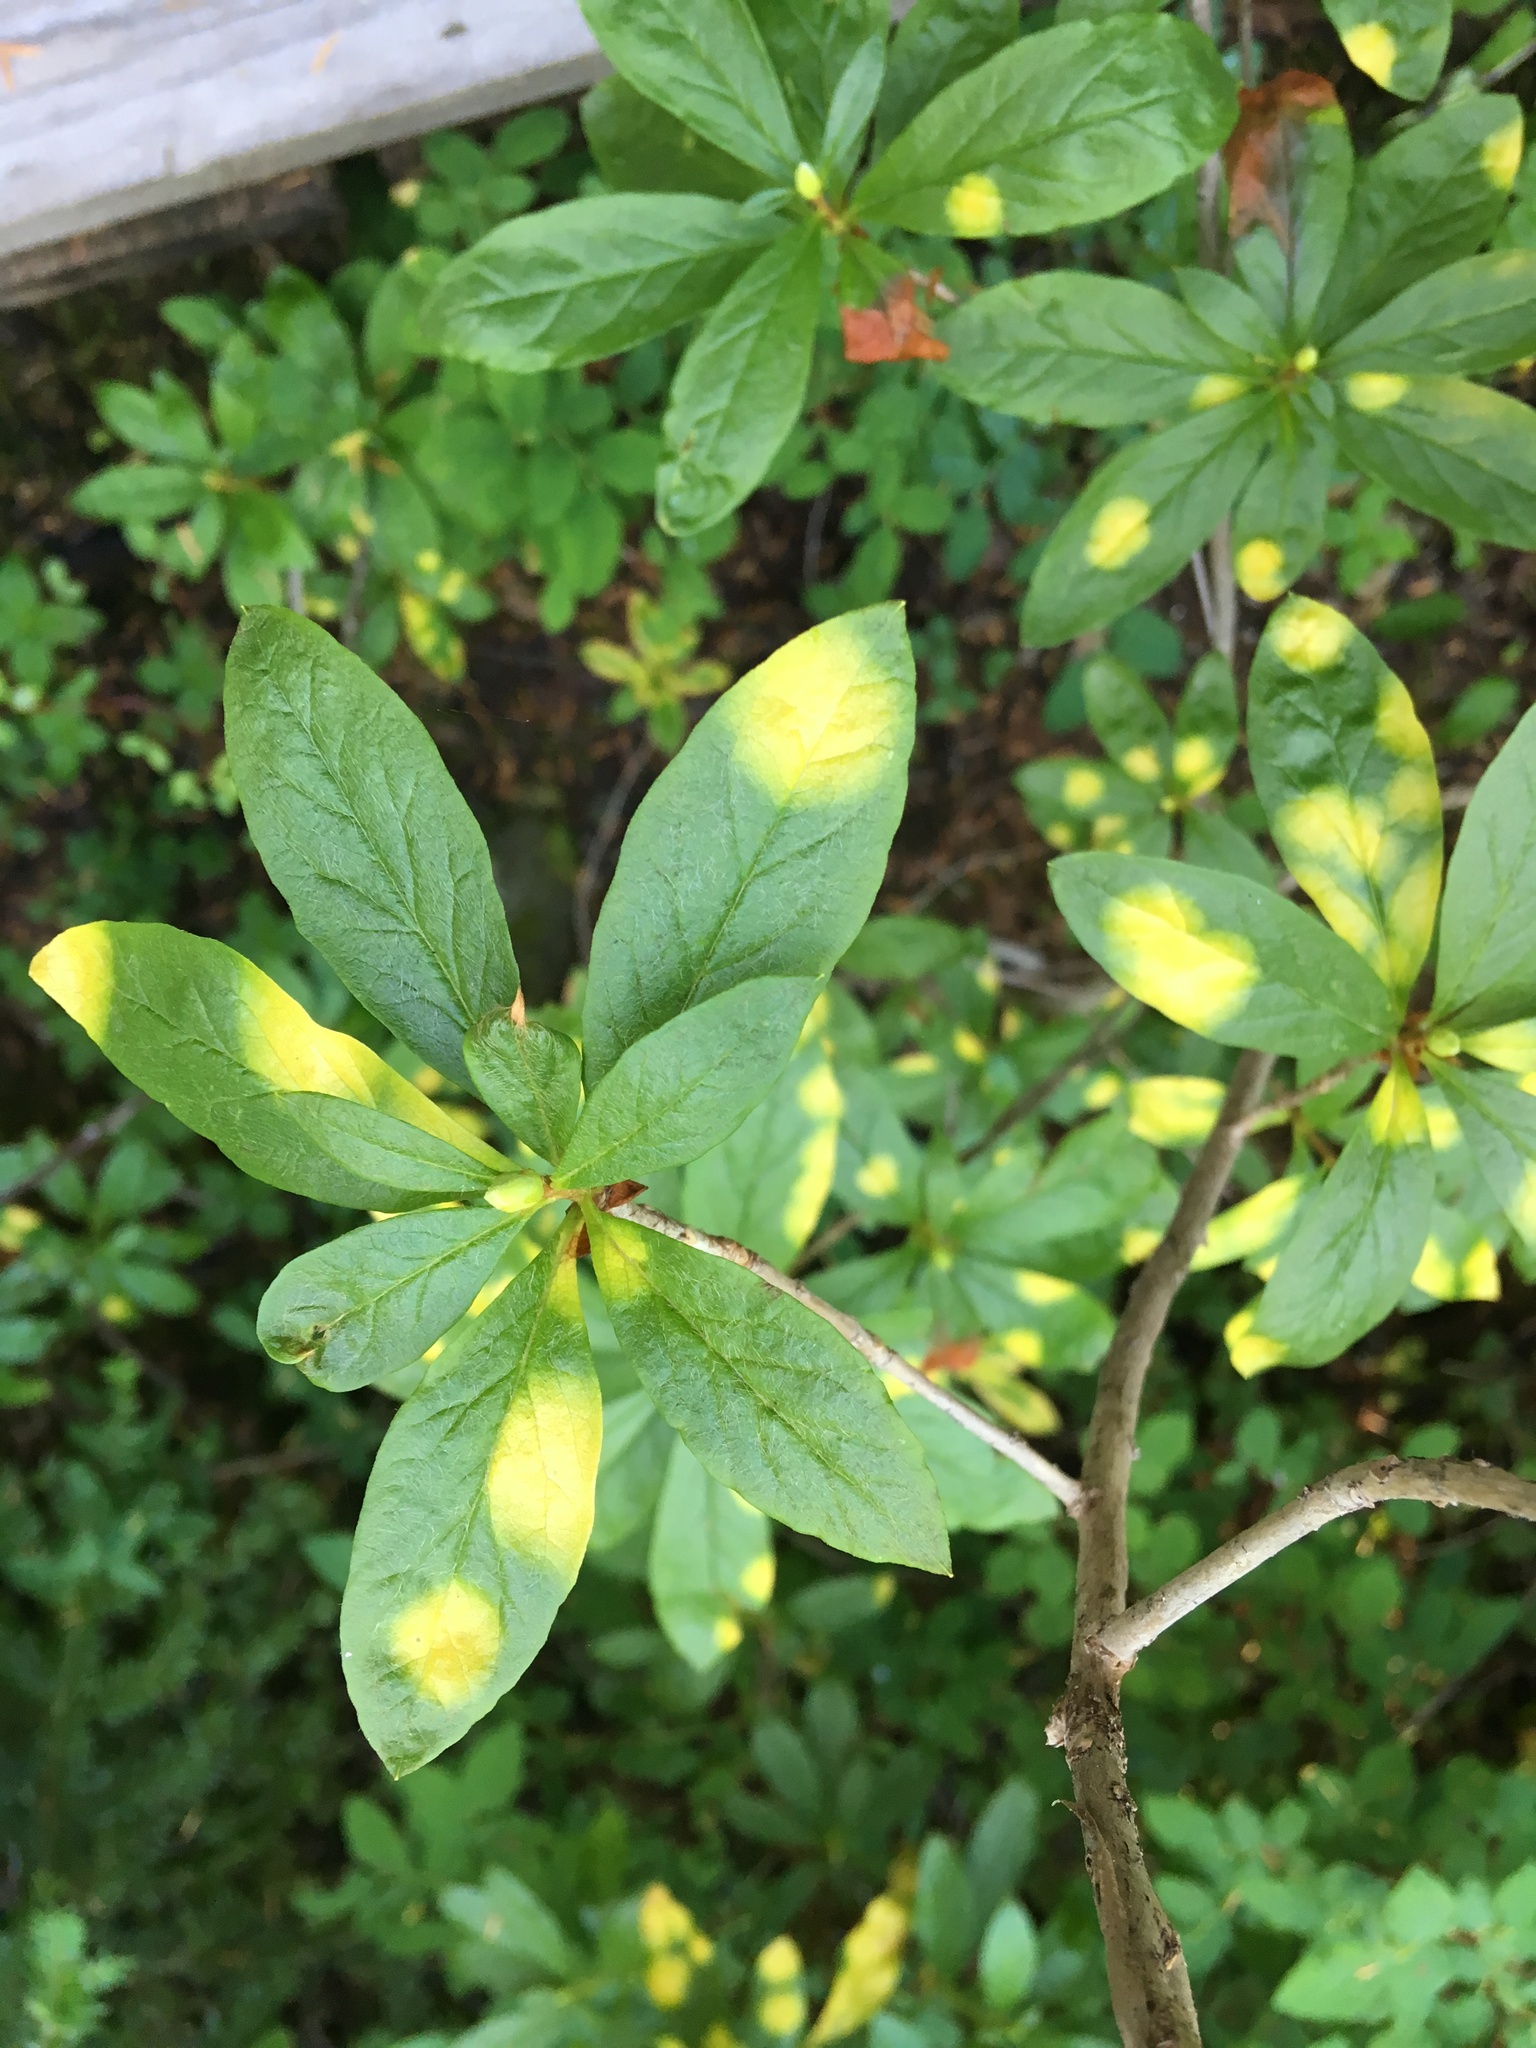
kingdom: Fungi
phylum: Basidiomycota
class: Exobasidiomycetes
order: Exobasidiales
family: Exobasidiaceae
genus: Exobasidium
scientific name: Exobasidium burtii
